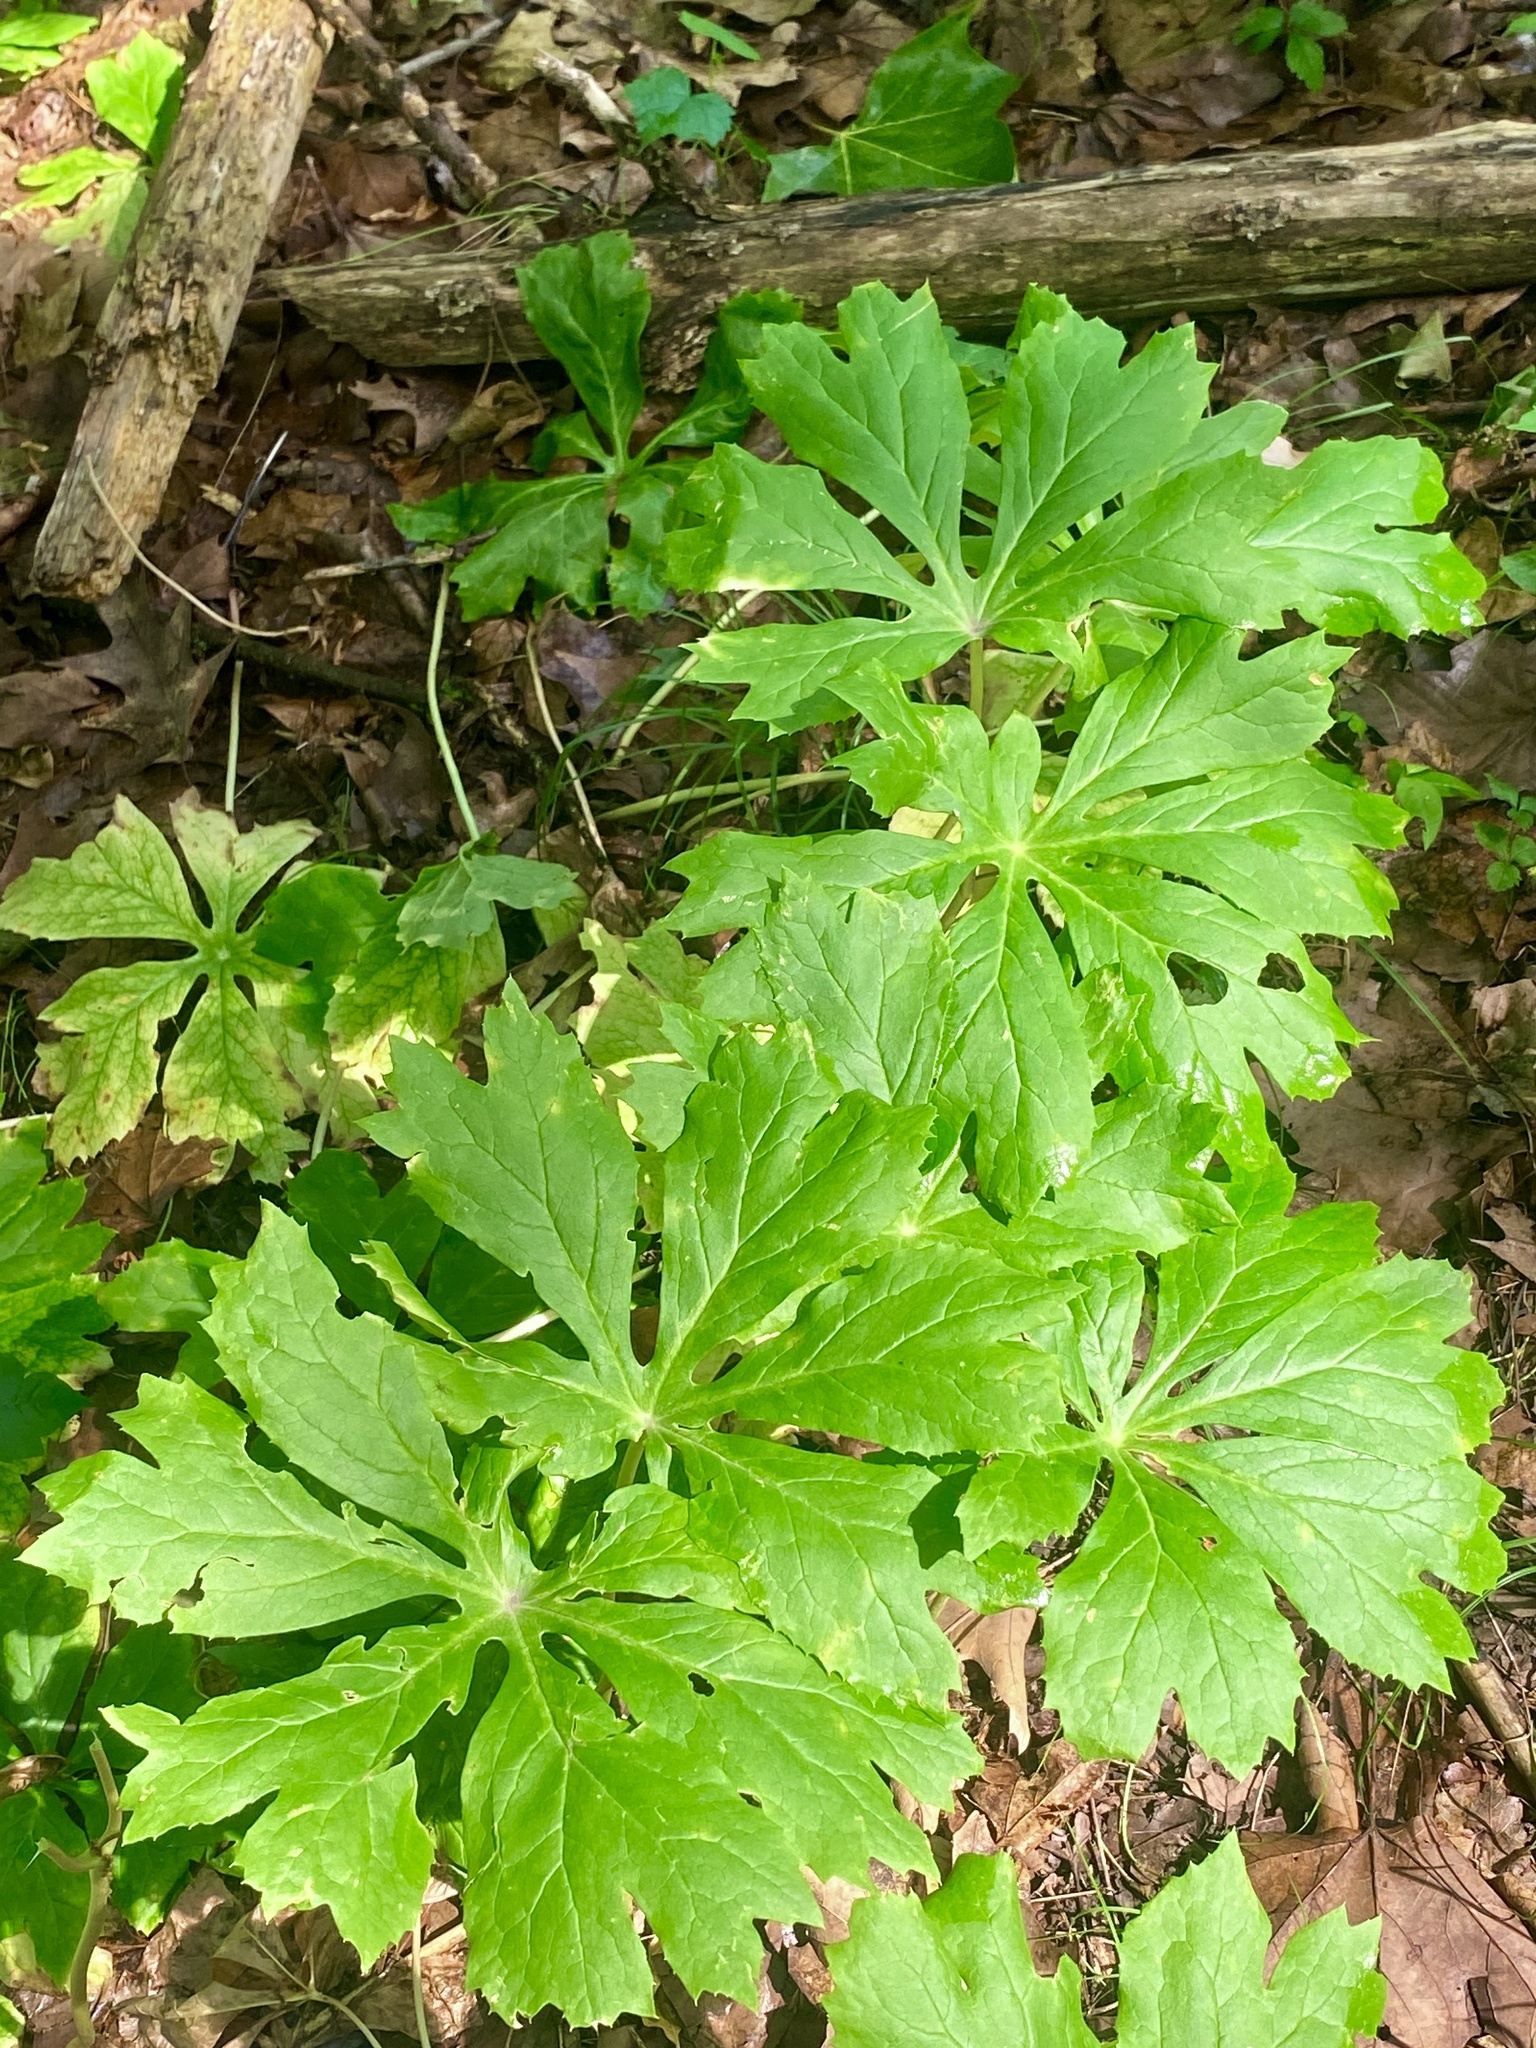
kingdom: Plantae
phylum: Tracheophyta
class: Magnoliopsida
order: Ranunculales
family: Berberidaceae
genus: Podophyllum
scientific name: Podophyllum peltatum
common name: Wild mandrake
